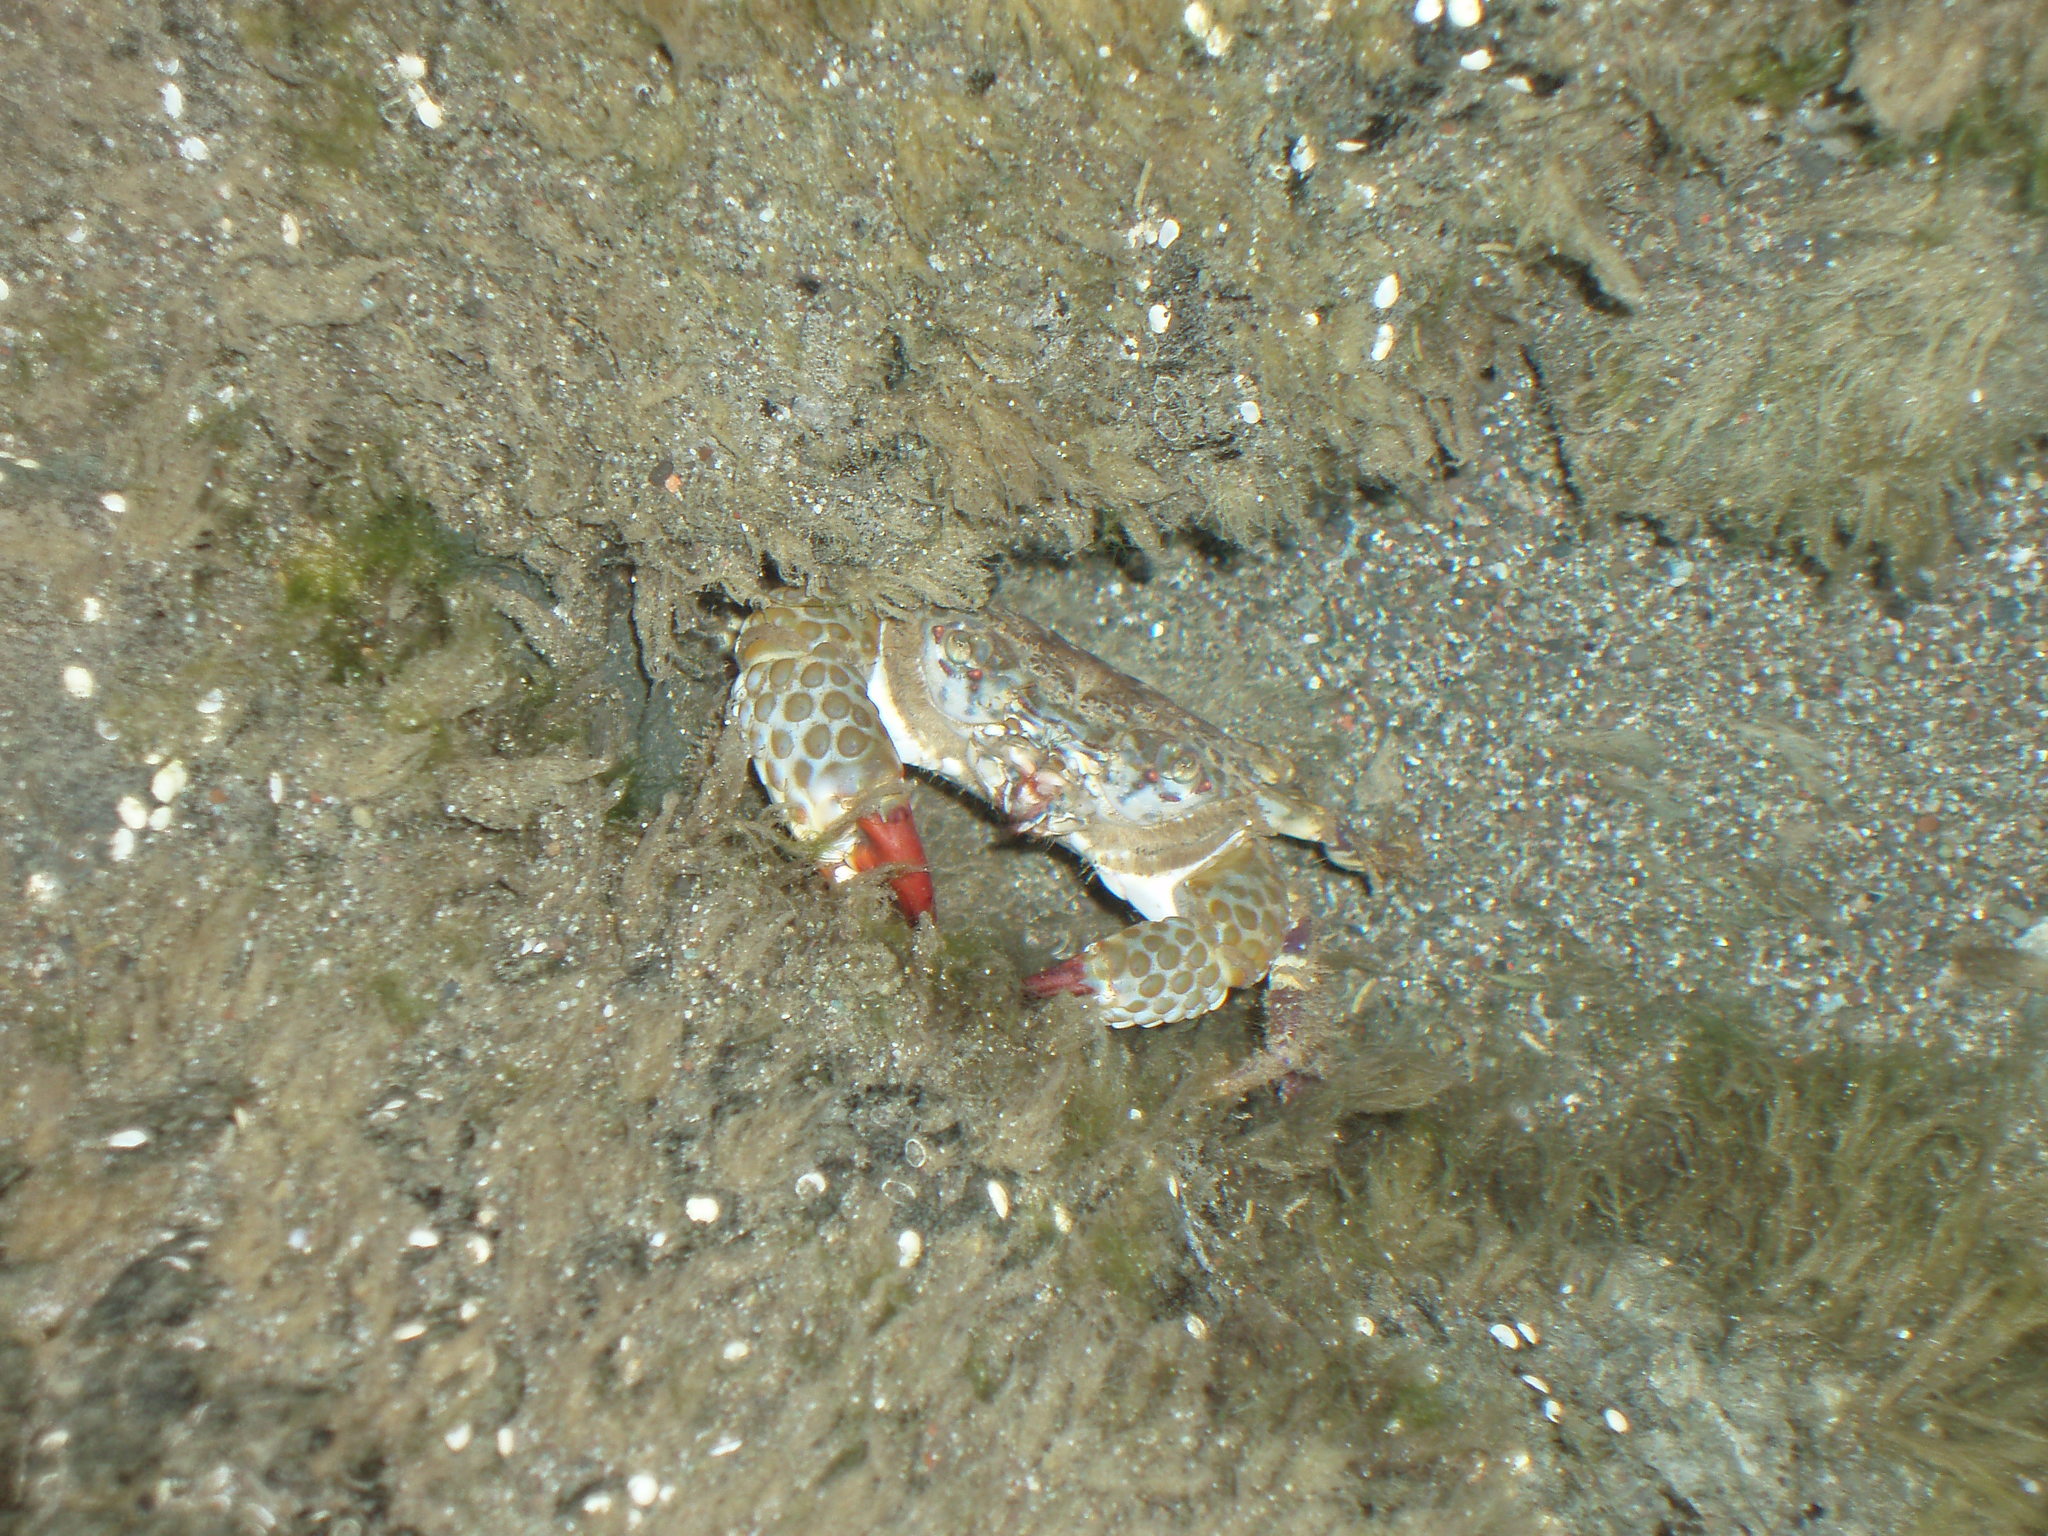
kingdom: Animalia
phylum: Arthropoda
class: Malacostraca
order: Decapoda
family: Eriphiidae
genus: Eriphia
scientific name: Eriphia squamata
